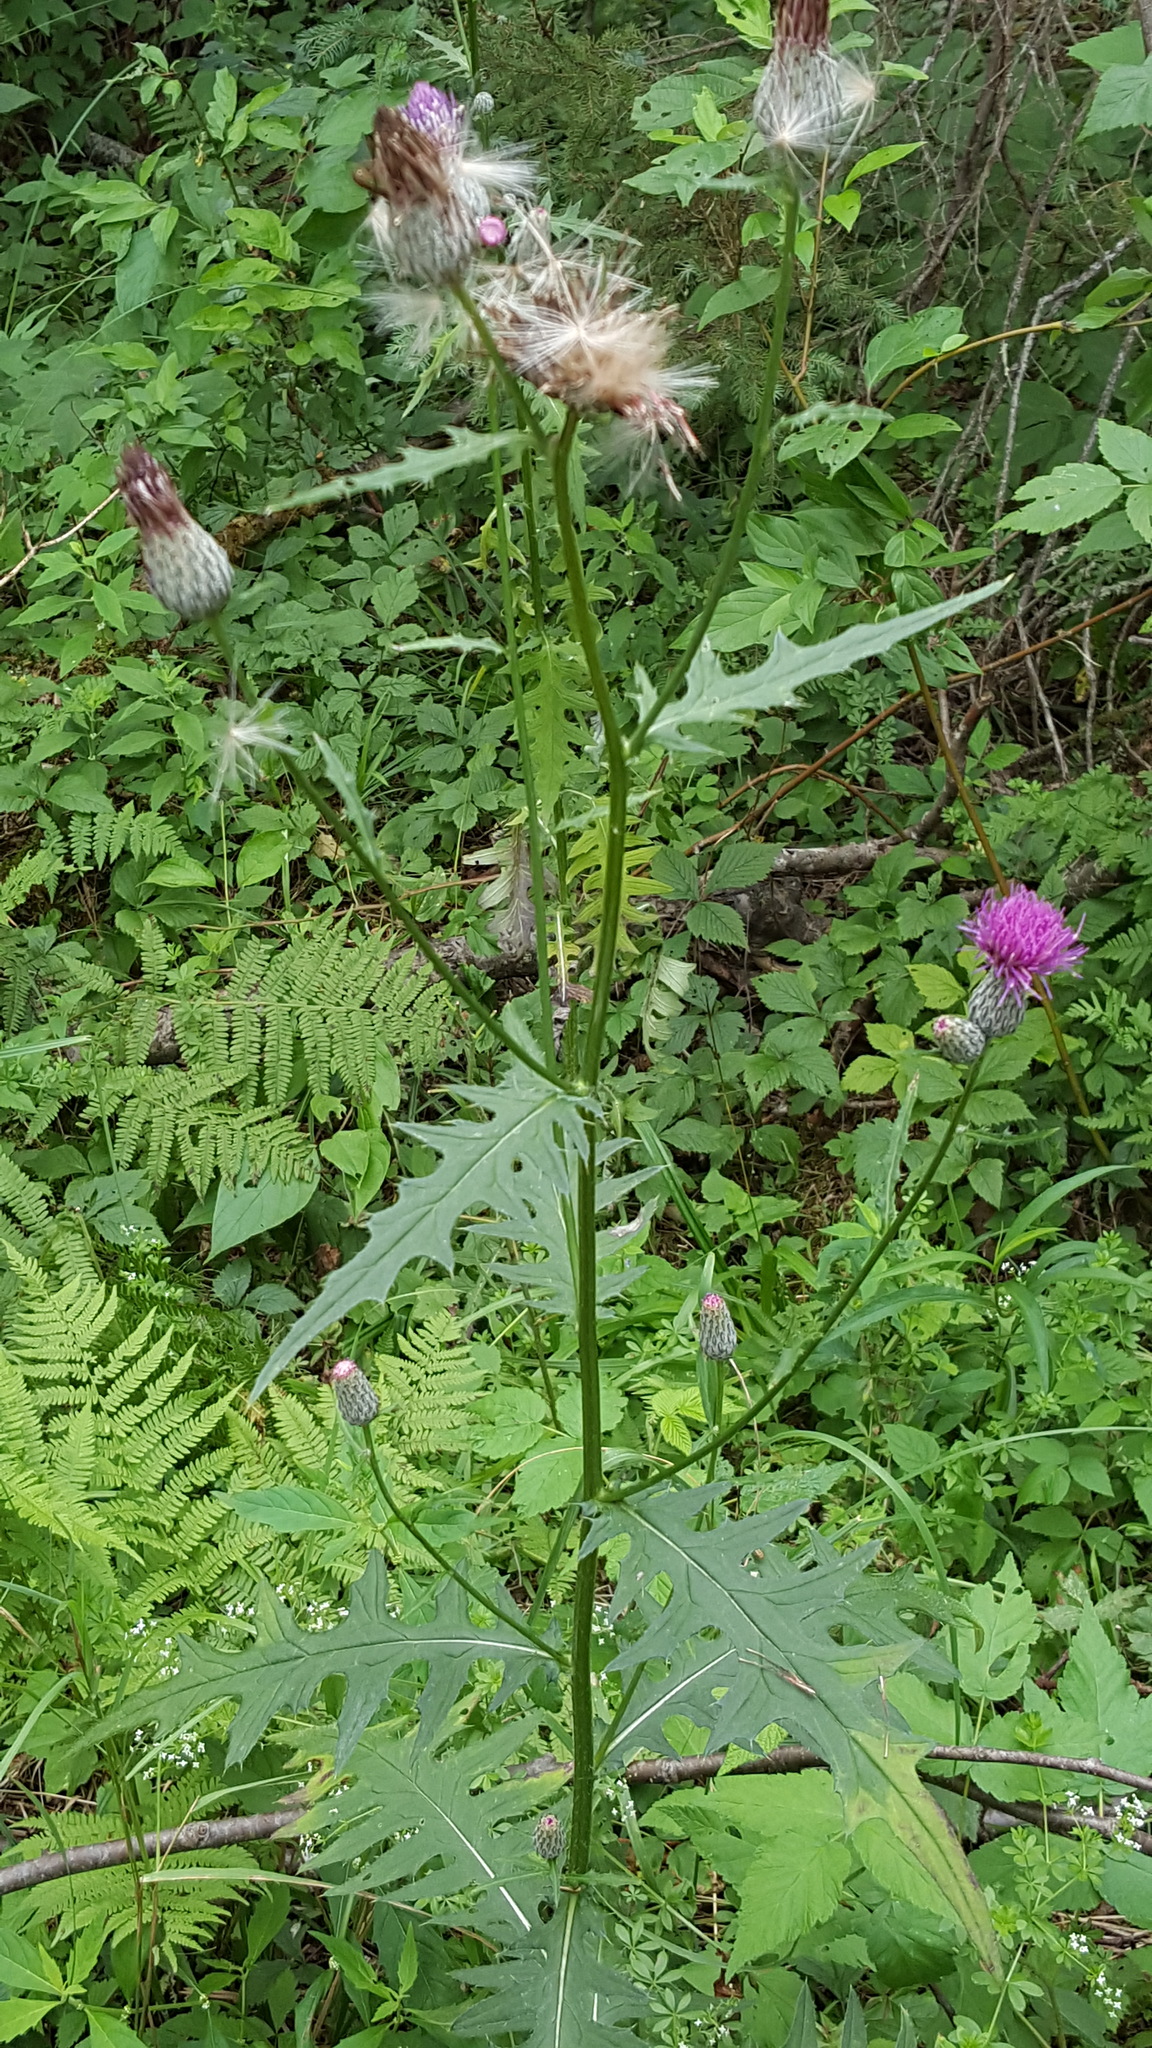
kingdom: Plantae
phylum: Tracheophyta
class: Magnoliopsida
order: Asterales
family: Asteraceae
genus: Cirsium
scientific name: Cirsium muticum
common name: Dunce-nettle
